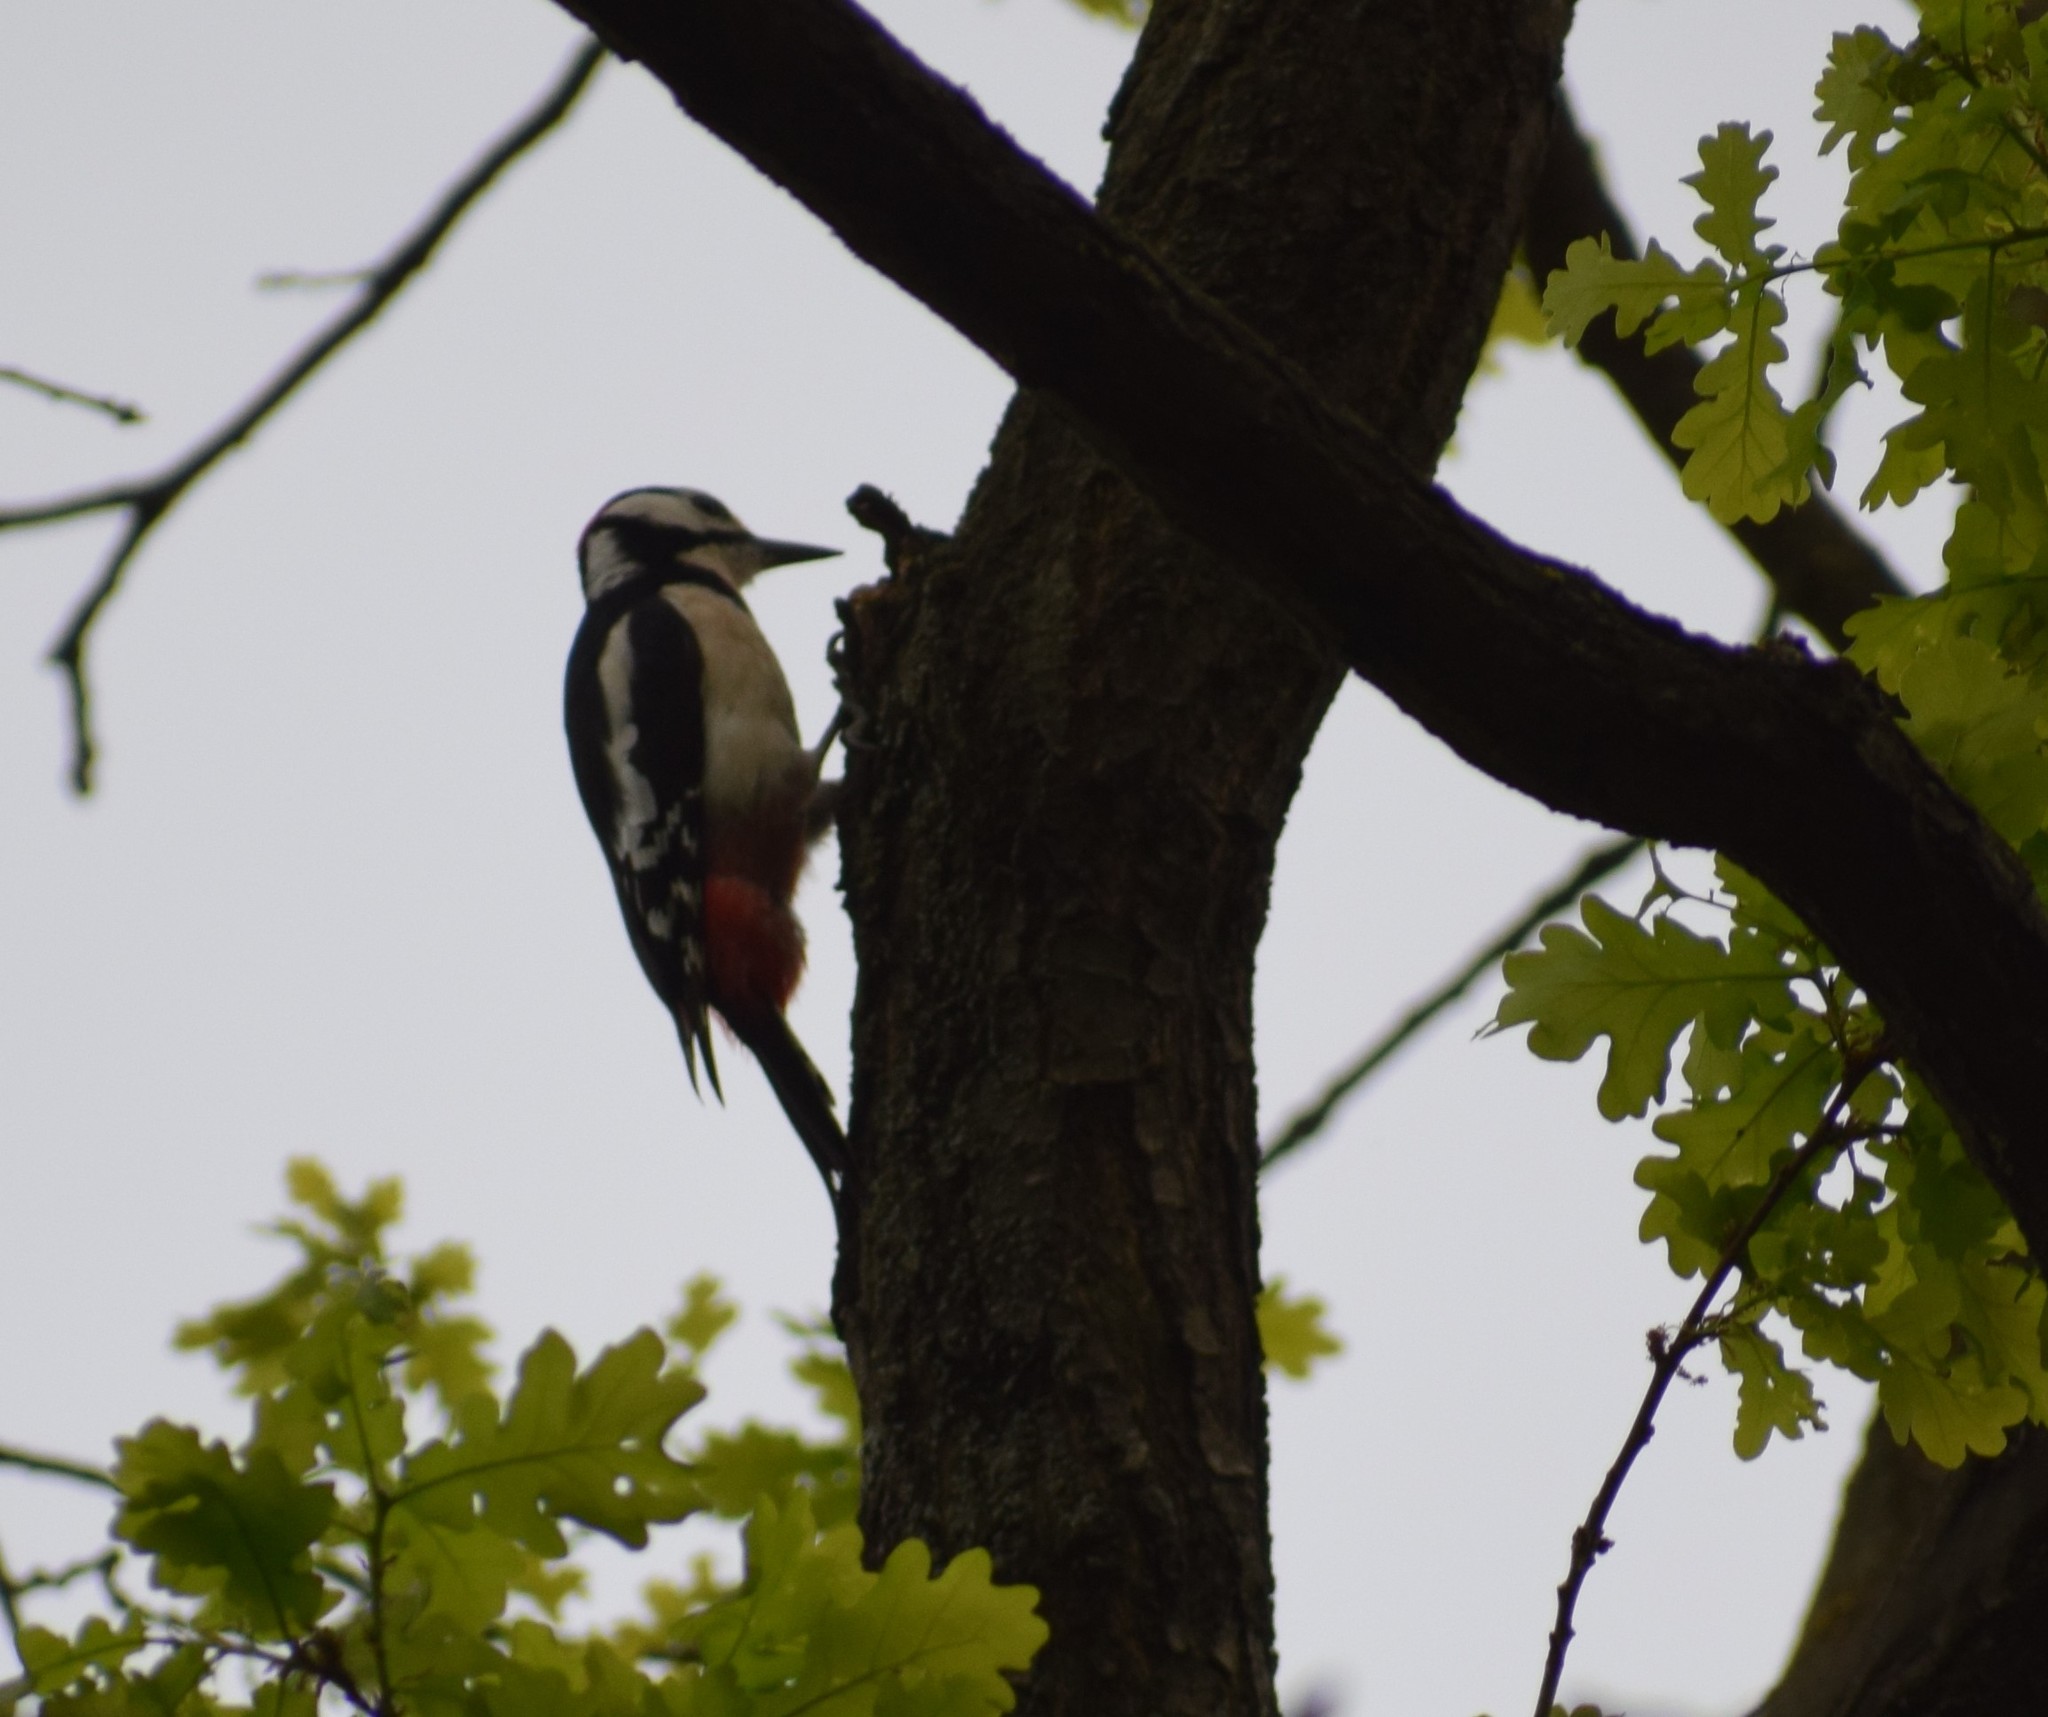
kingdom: Animalia
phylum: Chordata
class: Aves
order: Piciformes
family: Picidae
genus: Dendrocopos
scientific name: Dendrocopos major
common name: Great spotted woodpecker
